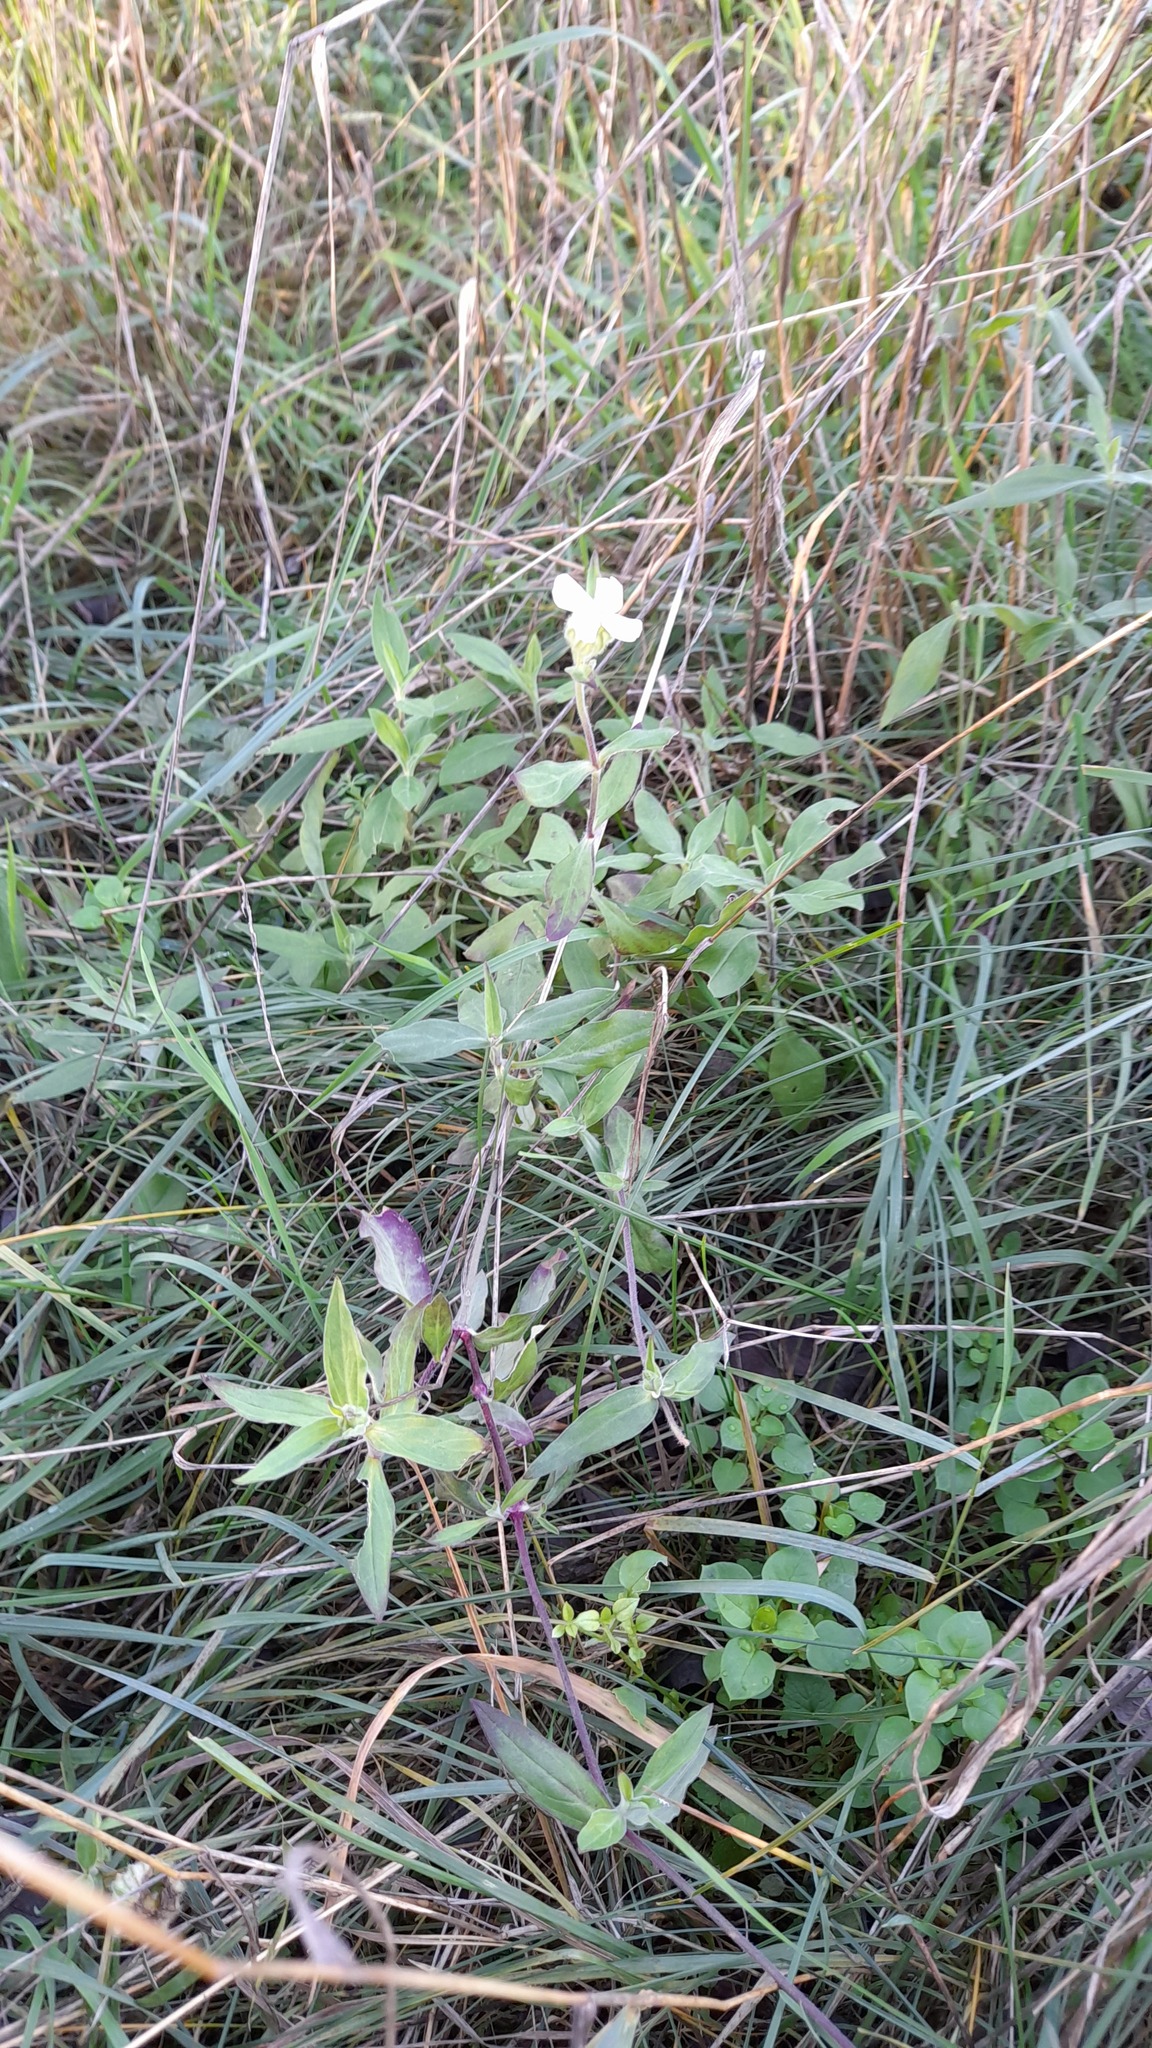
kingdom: Plantae
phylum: Tracheophyta
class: Magnoliopsida
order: Caryophyllales
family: Caryophyllaceae
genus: Silene
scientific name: Silene latifolia
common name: White campion
